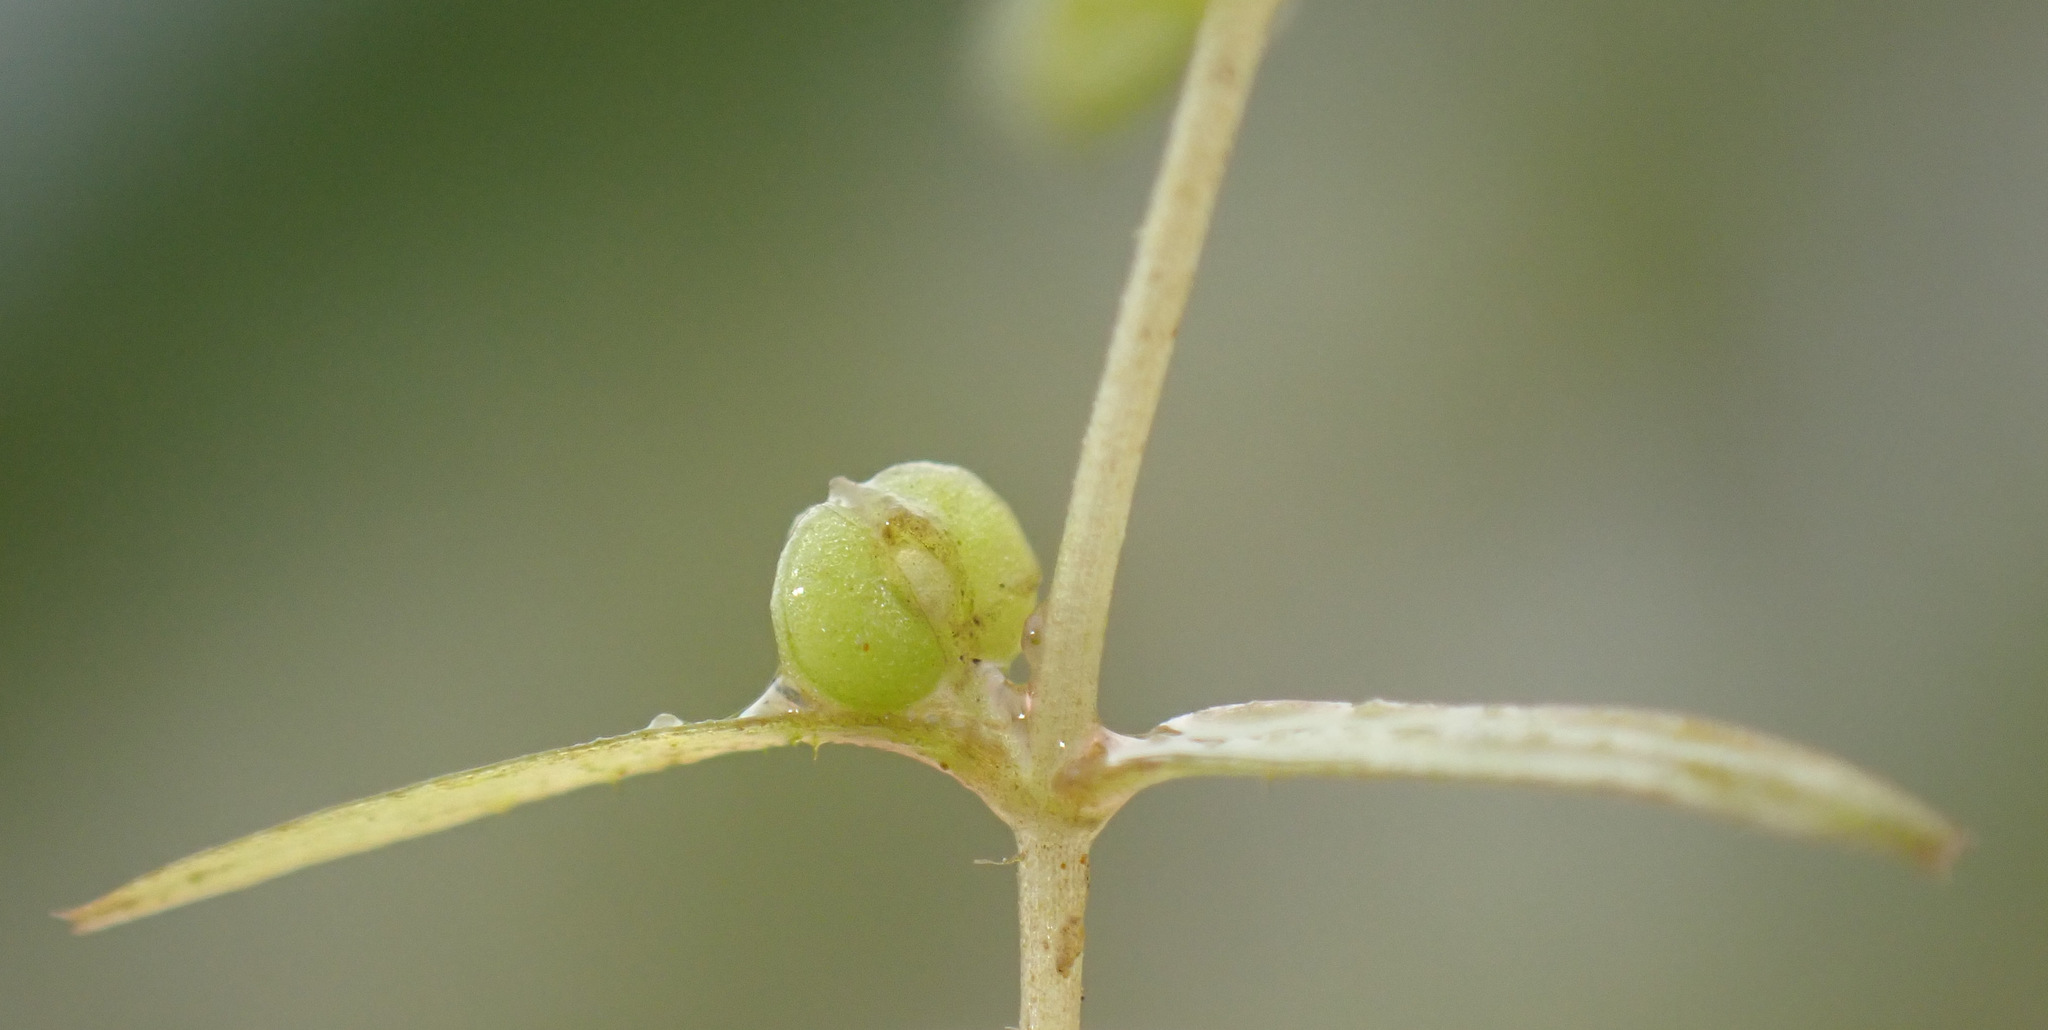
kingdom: Plantae
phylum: Tracheophyta
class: Magnoliopsida
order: Lamiales
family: Plantaginaceae
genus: Callitriche
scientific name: Callitriche truncata
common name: Short-leaved water-starwort
